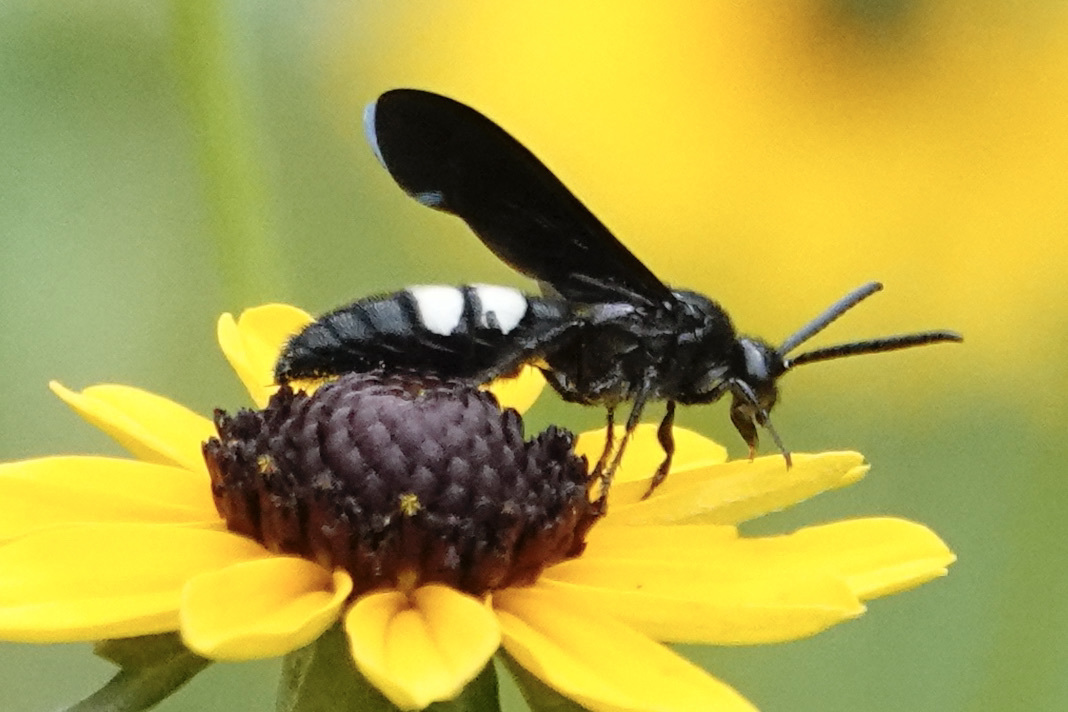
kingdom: Animalia
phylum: Arthropoda
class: Insecta
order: Hymenoptera
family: Scoliidae
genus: Scolia
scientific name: Scolia bicincta
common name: Double-banded scoliid wasp
